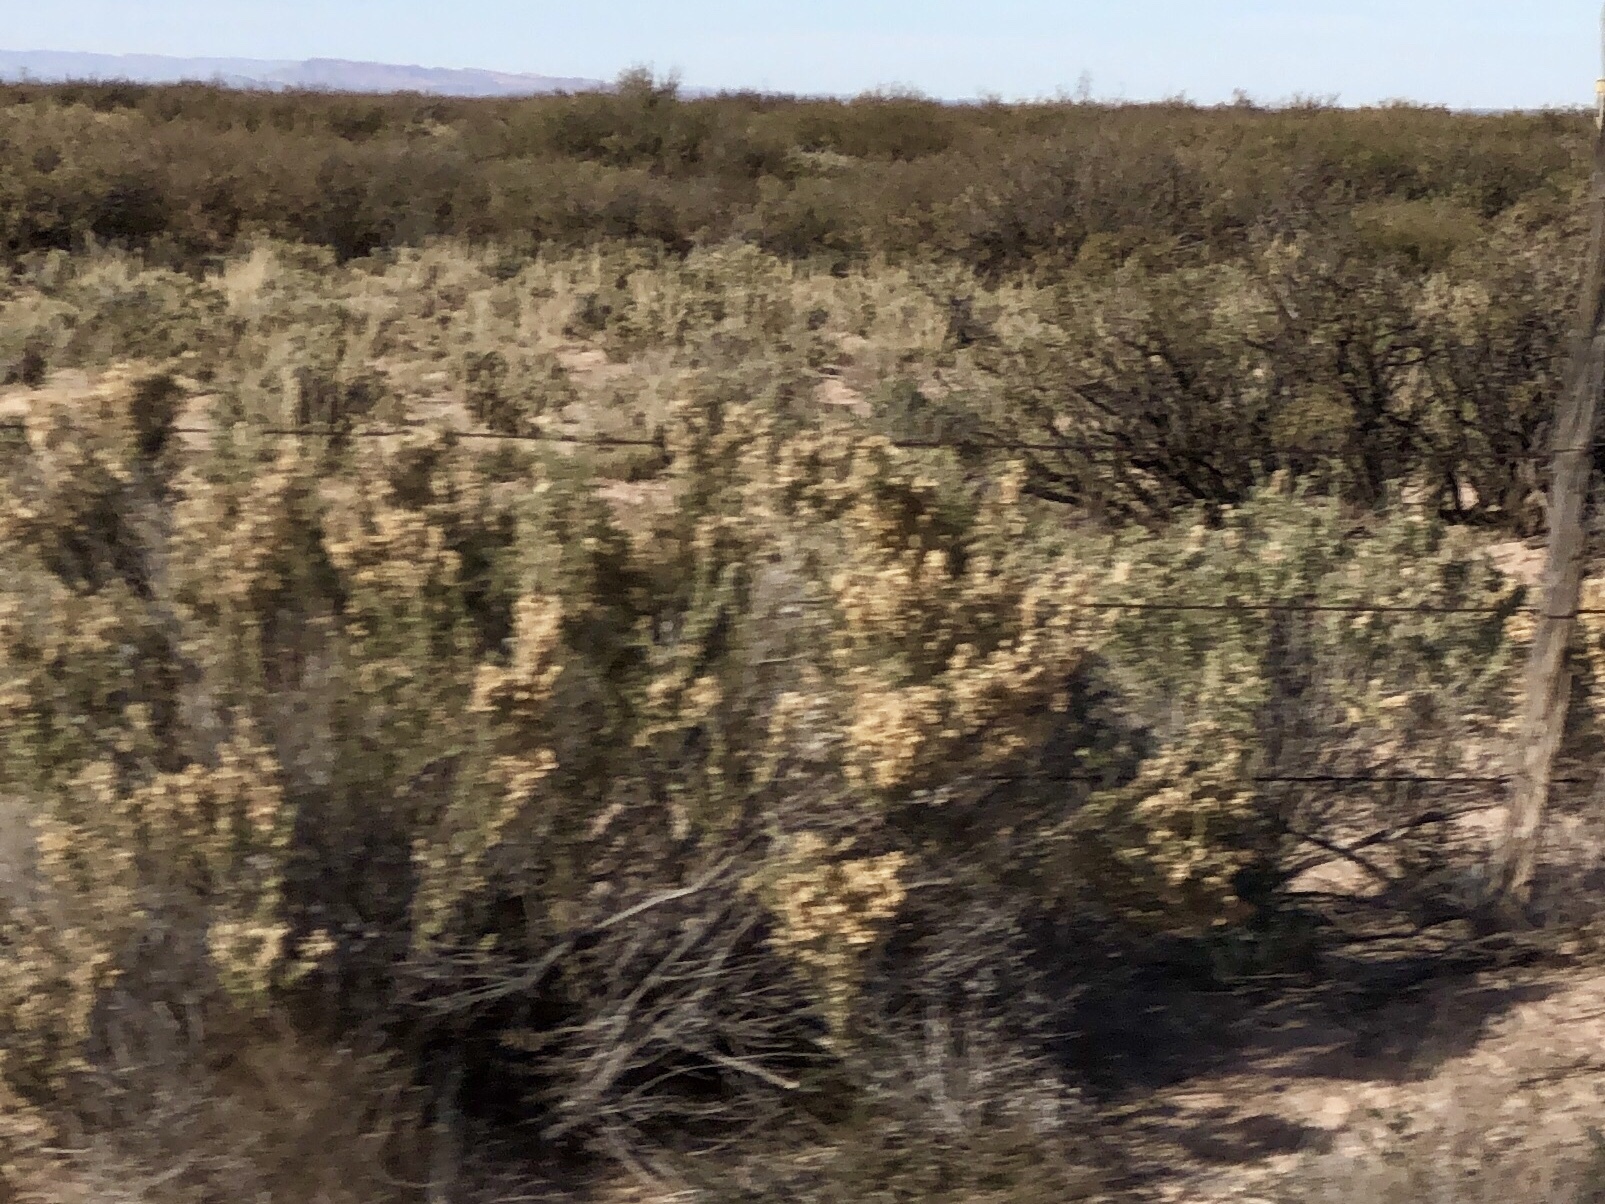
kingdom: Plantae
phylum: Tracheophyta
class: Magnoliopsida
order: Caryophyllales
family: Amaranthaceae
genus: Atriplex
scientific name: Atriplex canescens
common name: Four-wing saltbush
